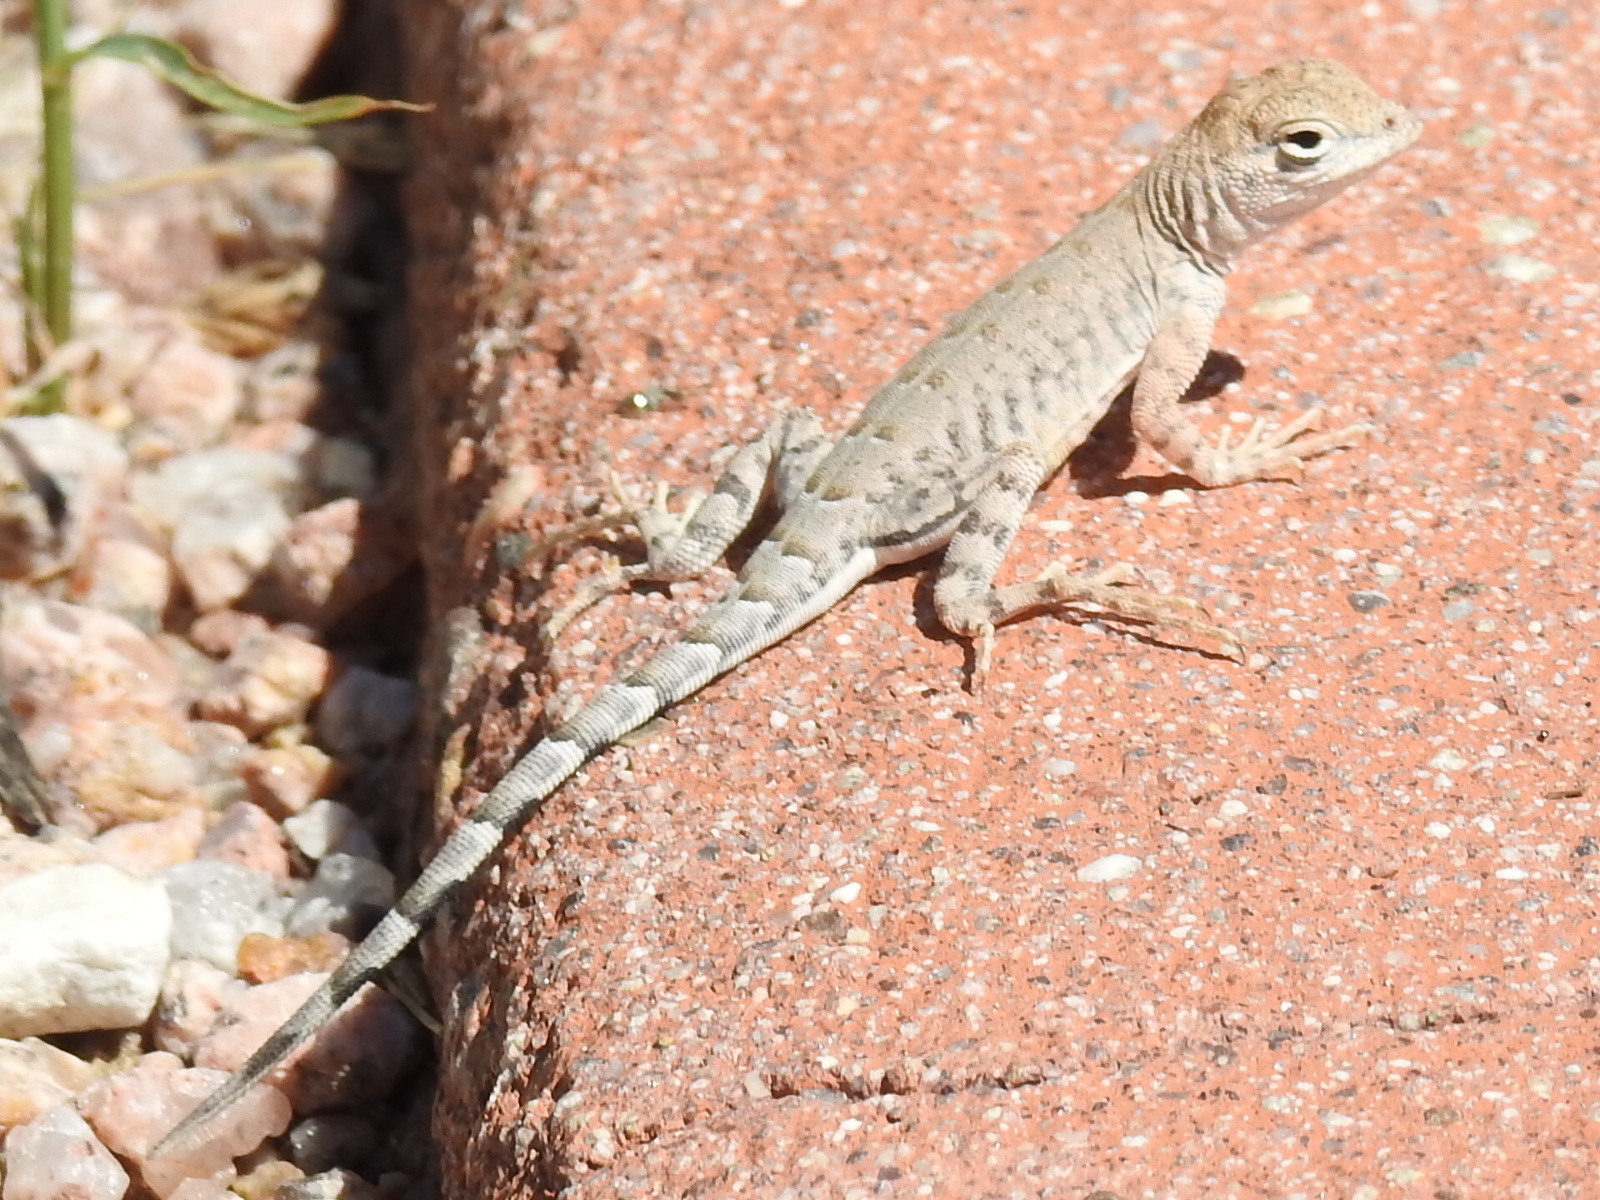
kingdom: Animalia
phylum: Chordata
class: Squamata
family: Phrynosomatidae
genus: Cophosaurus
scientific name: Cophosaurus texanus
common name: Greater earless lizard
